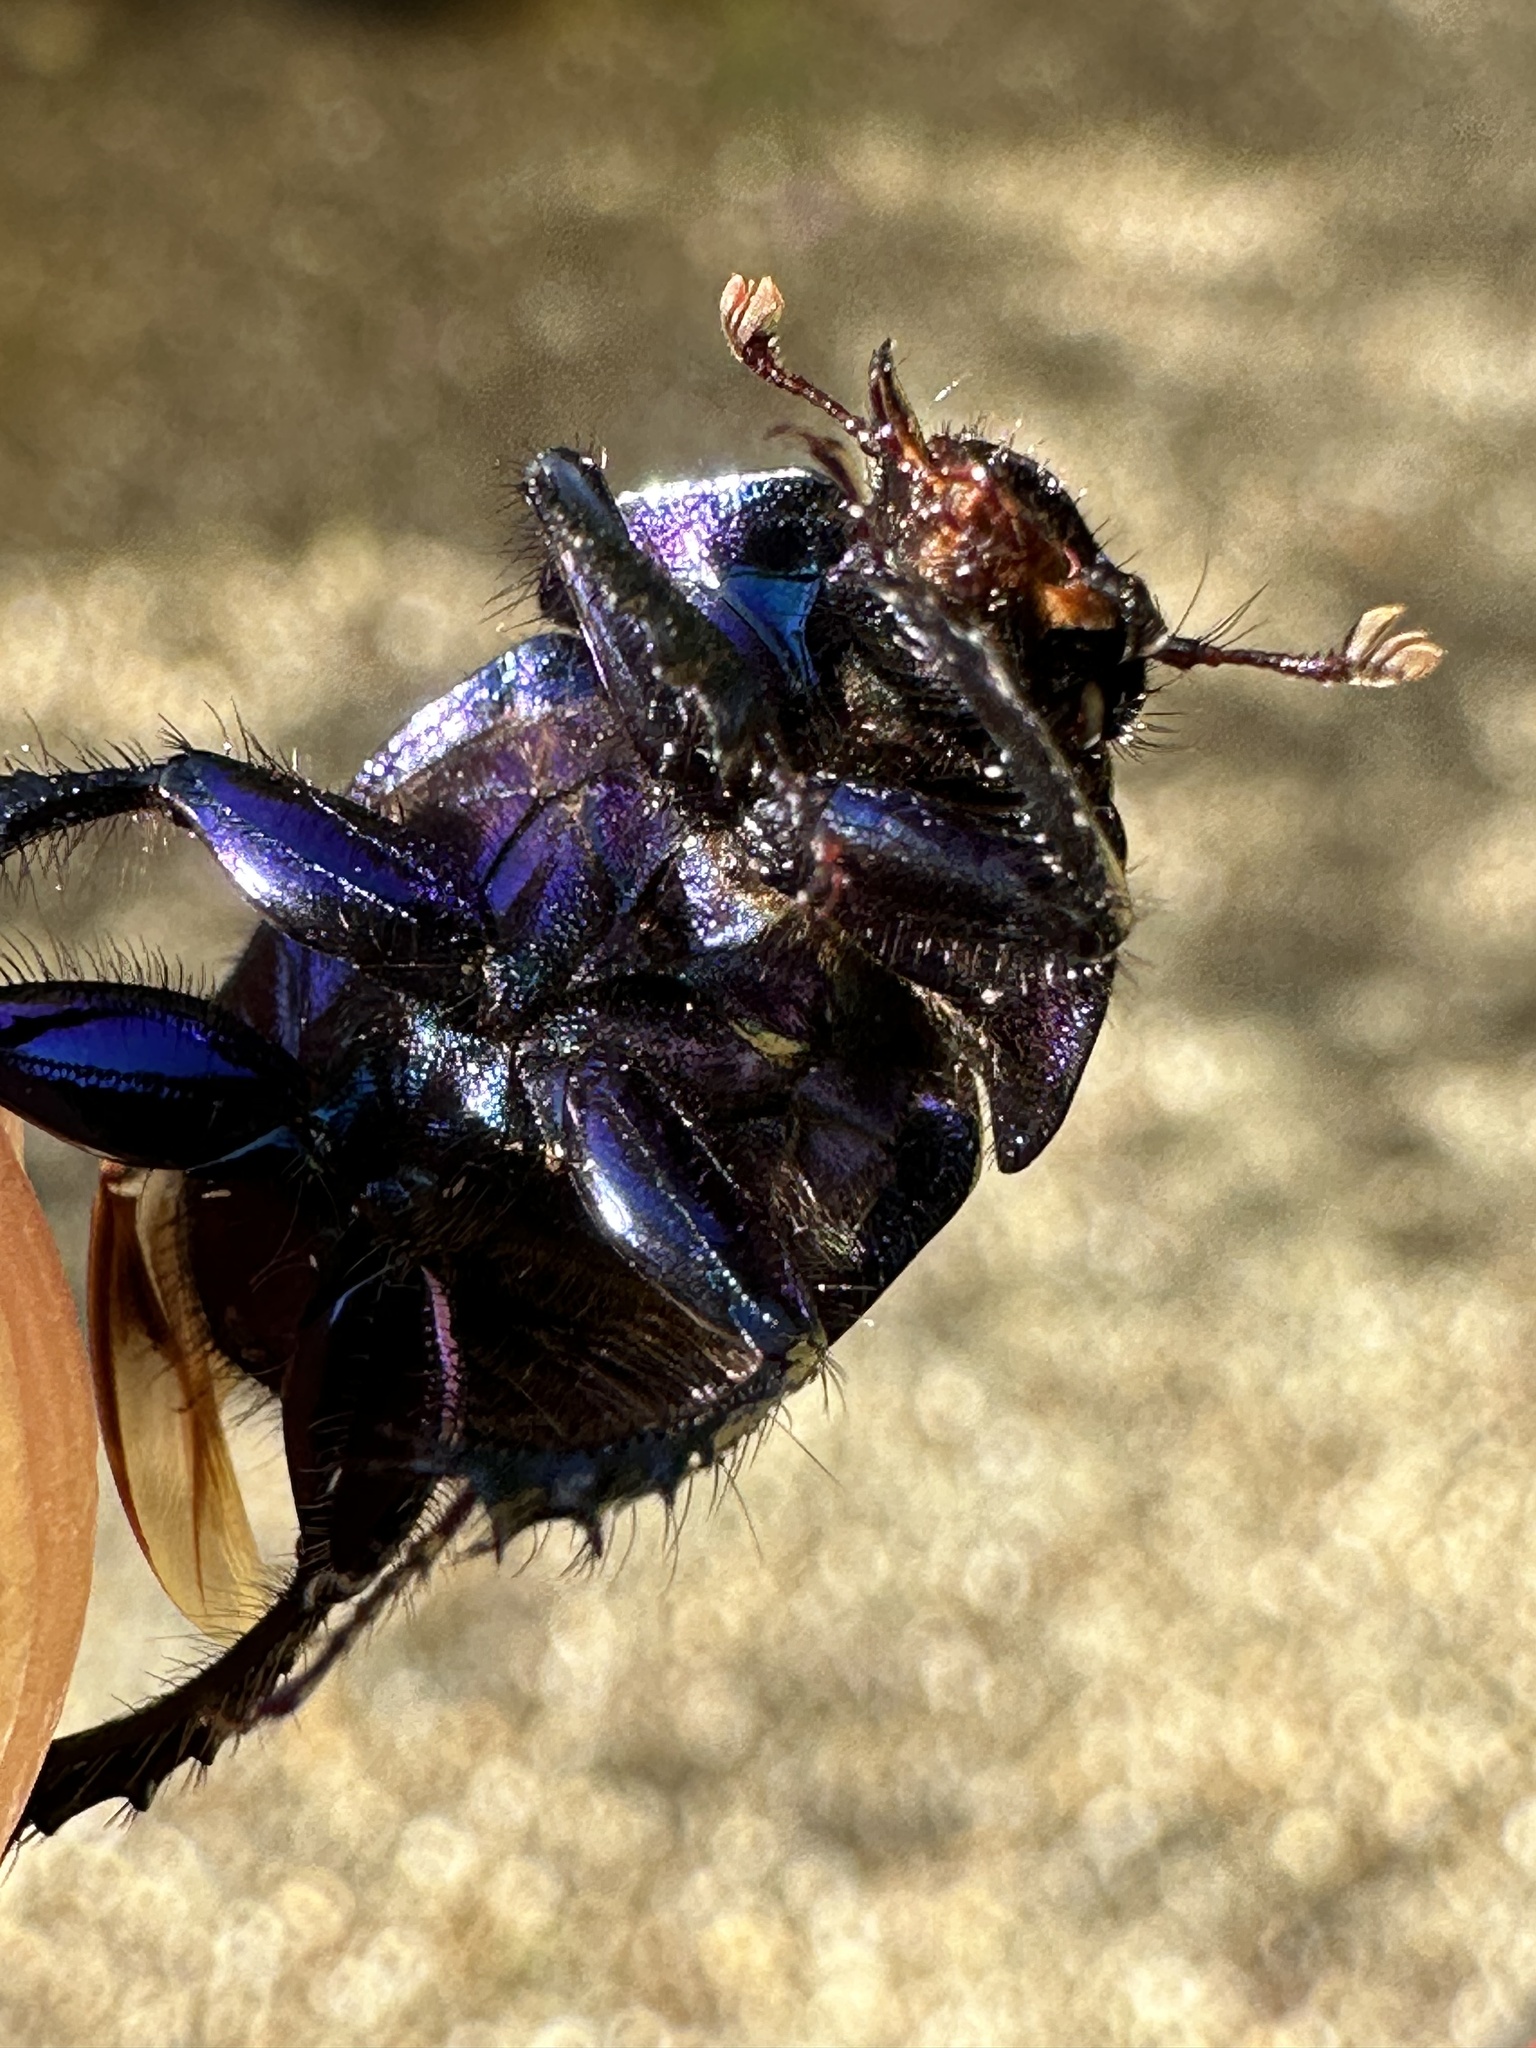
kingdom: Animalia
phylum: Arthropoda
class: Insecta
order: Coleoptera
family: Geotrupidae
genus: Anoplotrupes
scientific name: Anoplotrupes stercorosus
